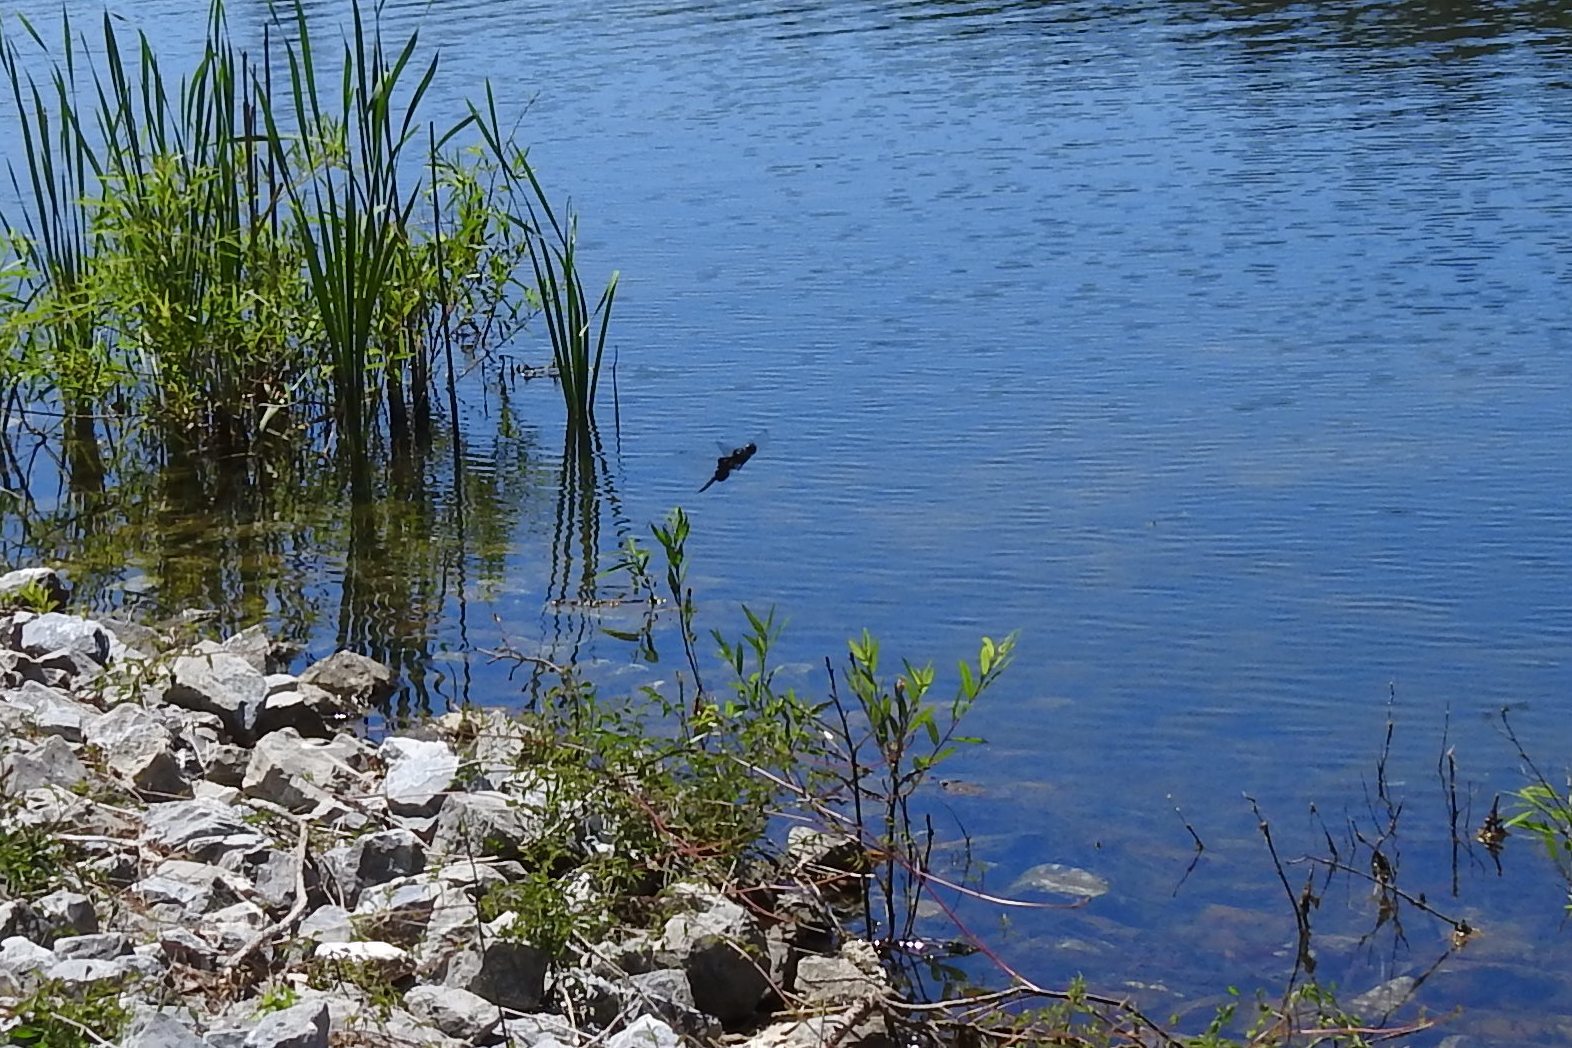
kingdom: Animalia
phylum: Arthropoda
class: Insecta
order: Odonata
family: Libellulidae
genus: Tramea
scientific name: Tramea lacerata
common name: Black saddlebags
